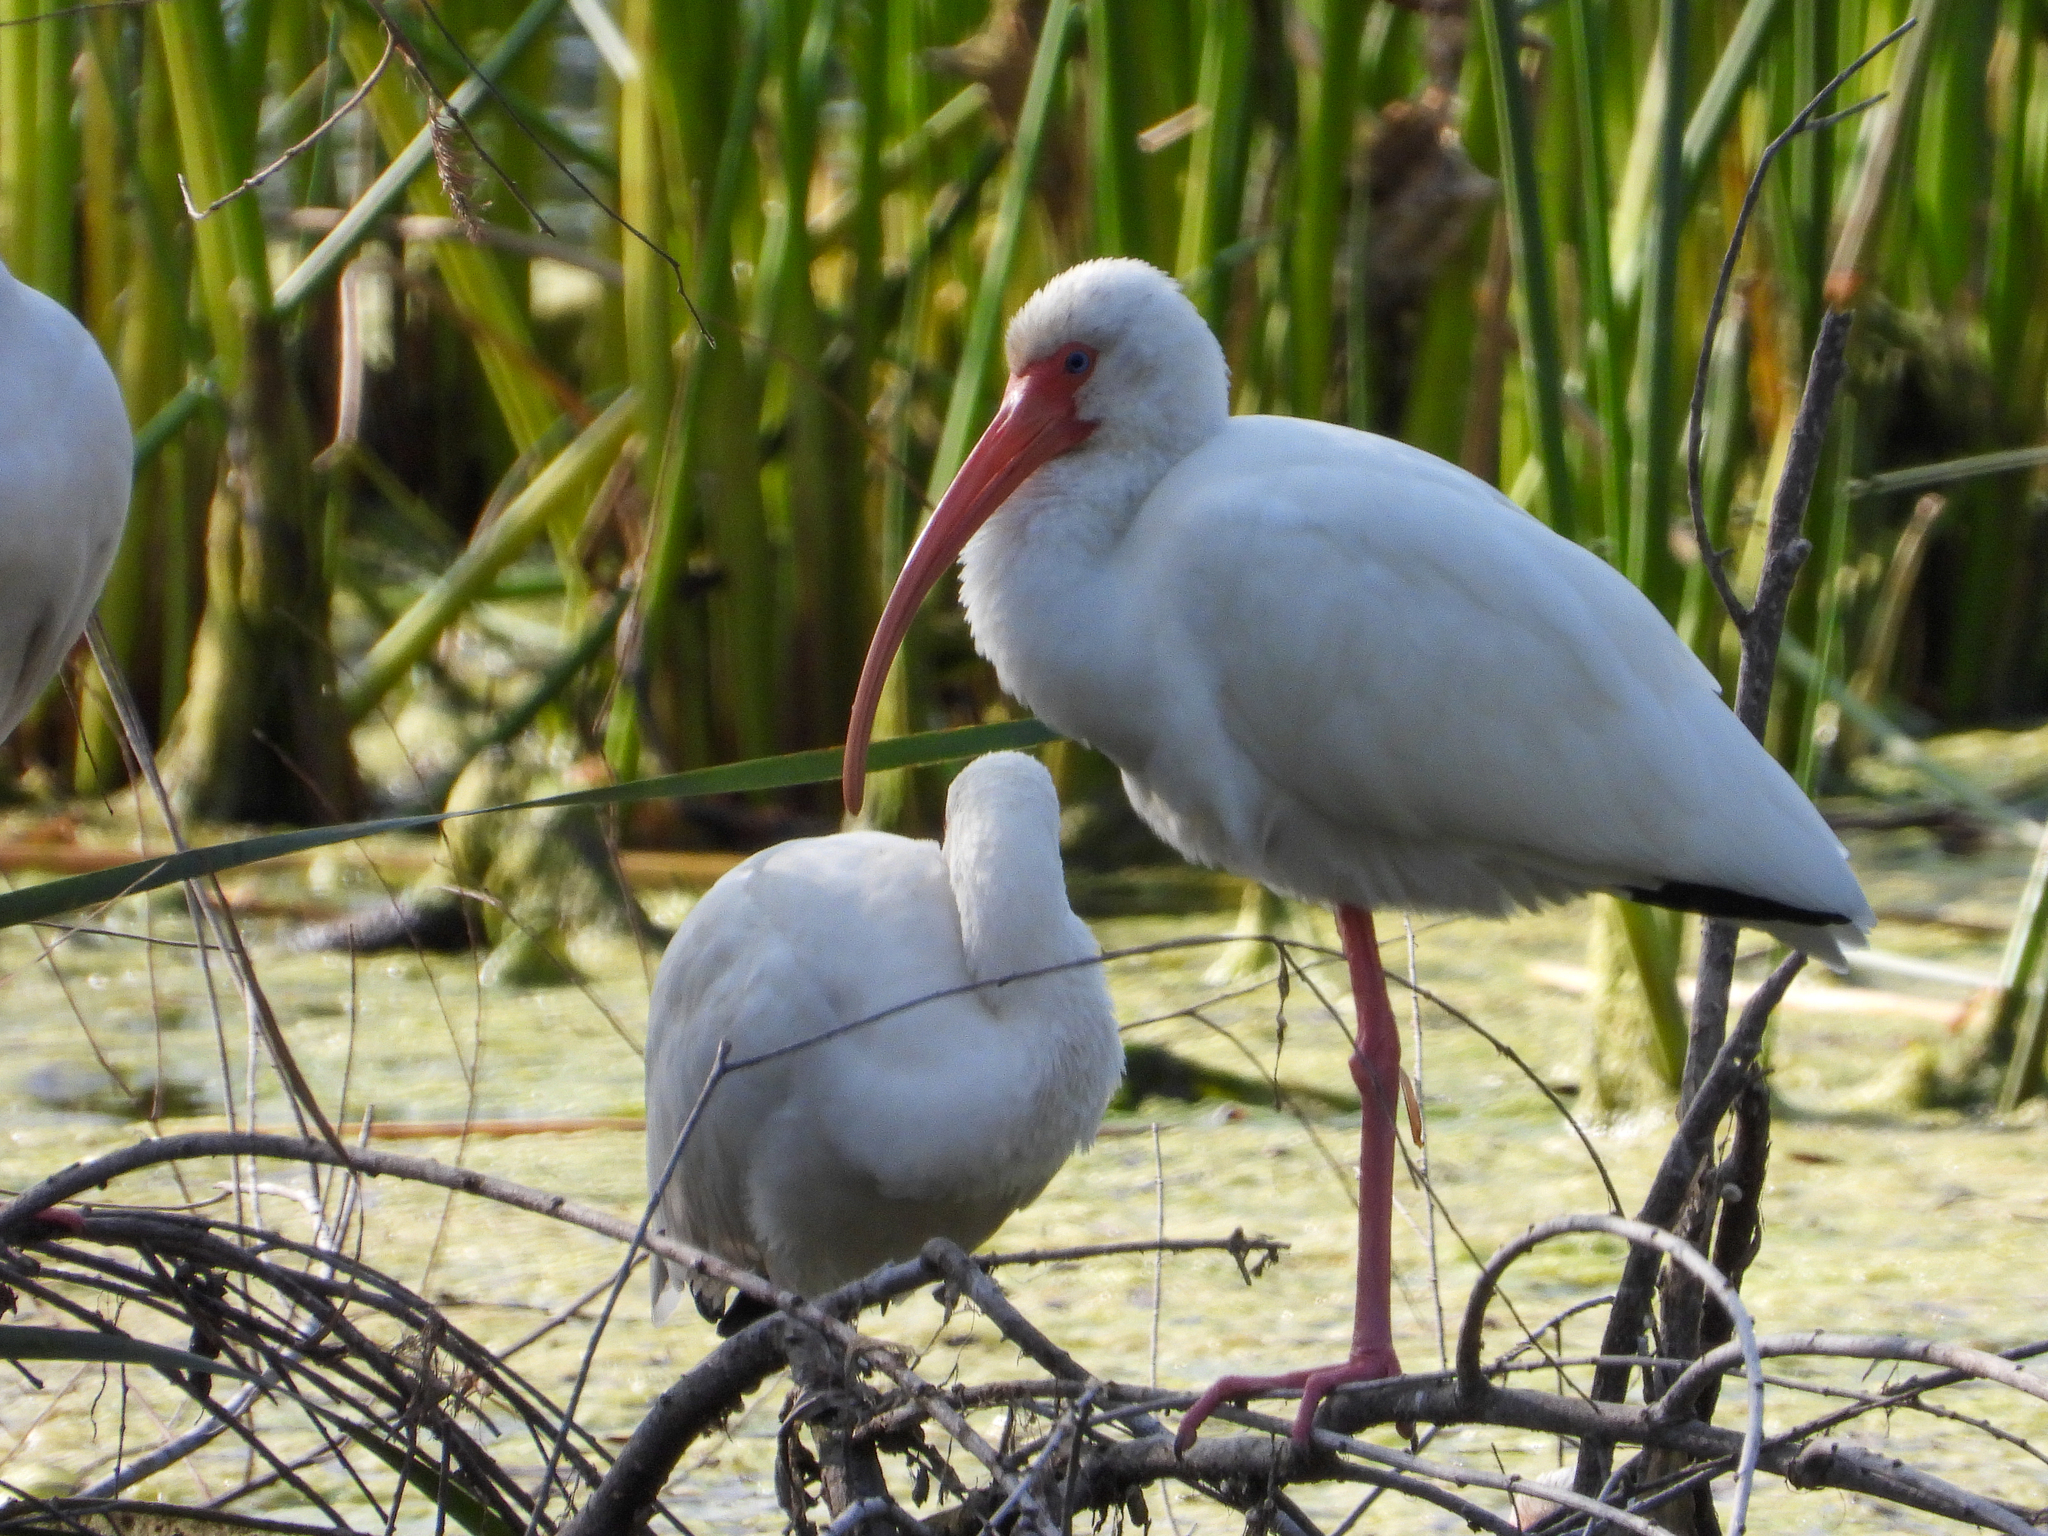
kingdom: Animalia
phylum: Chordata
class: Aves
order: Pelecaniformes
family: Threskiornithidae
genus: Eudocimus
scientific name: Eudocimus albus
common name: White ibis
